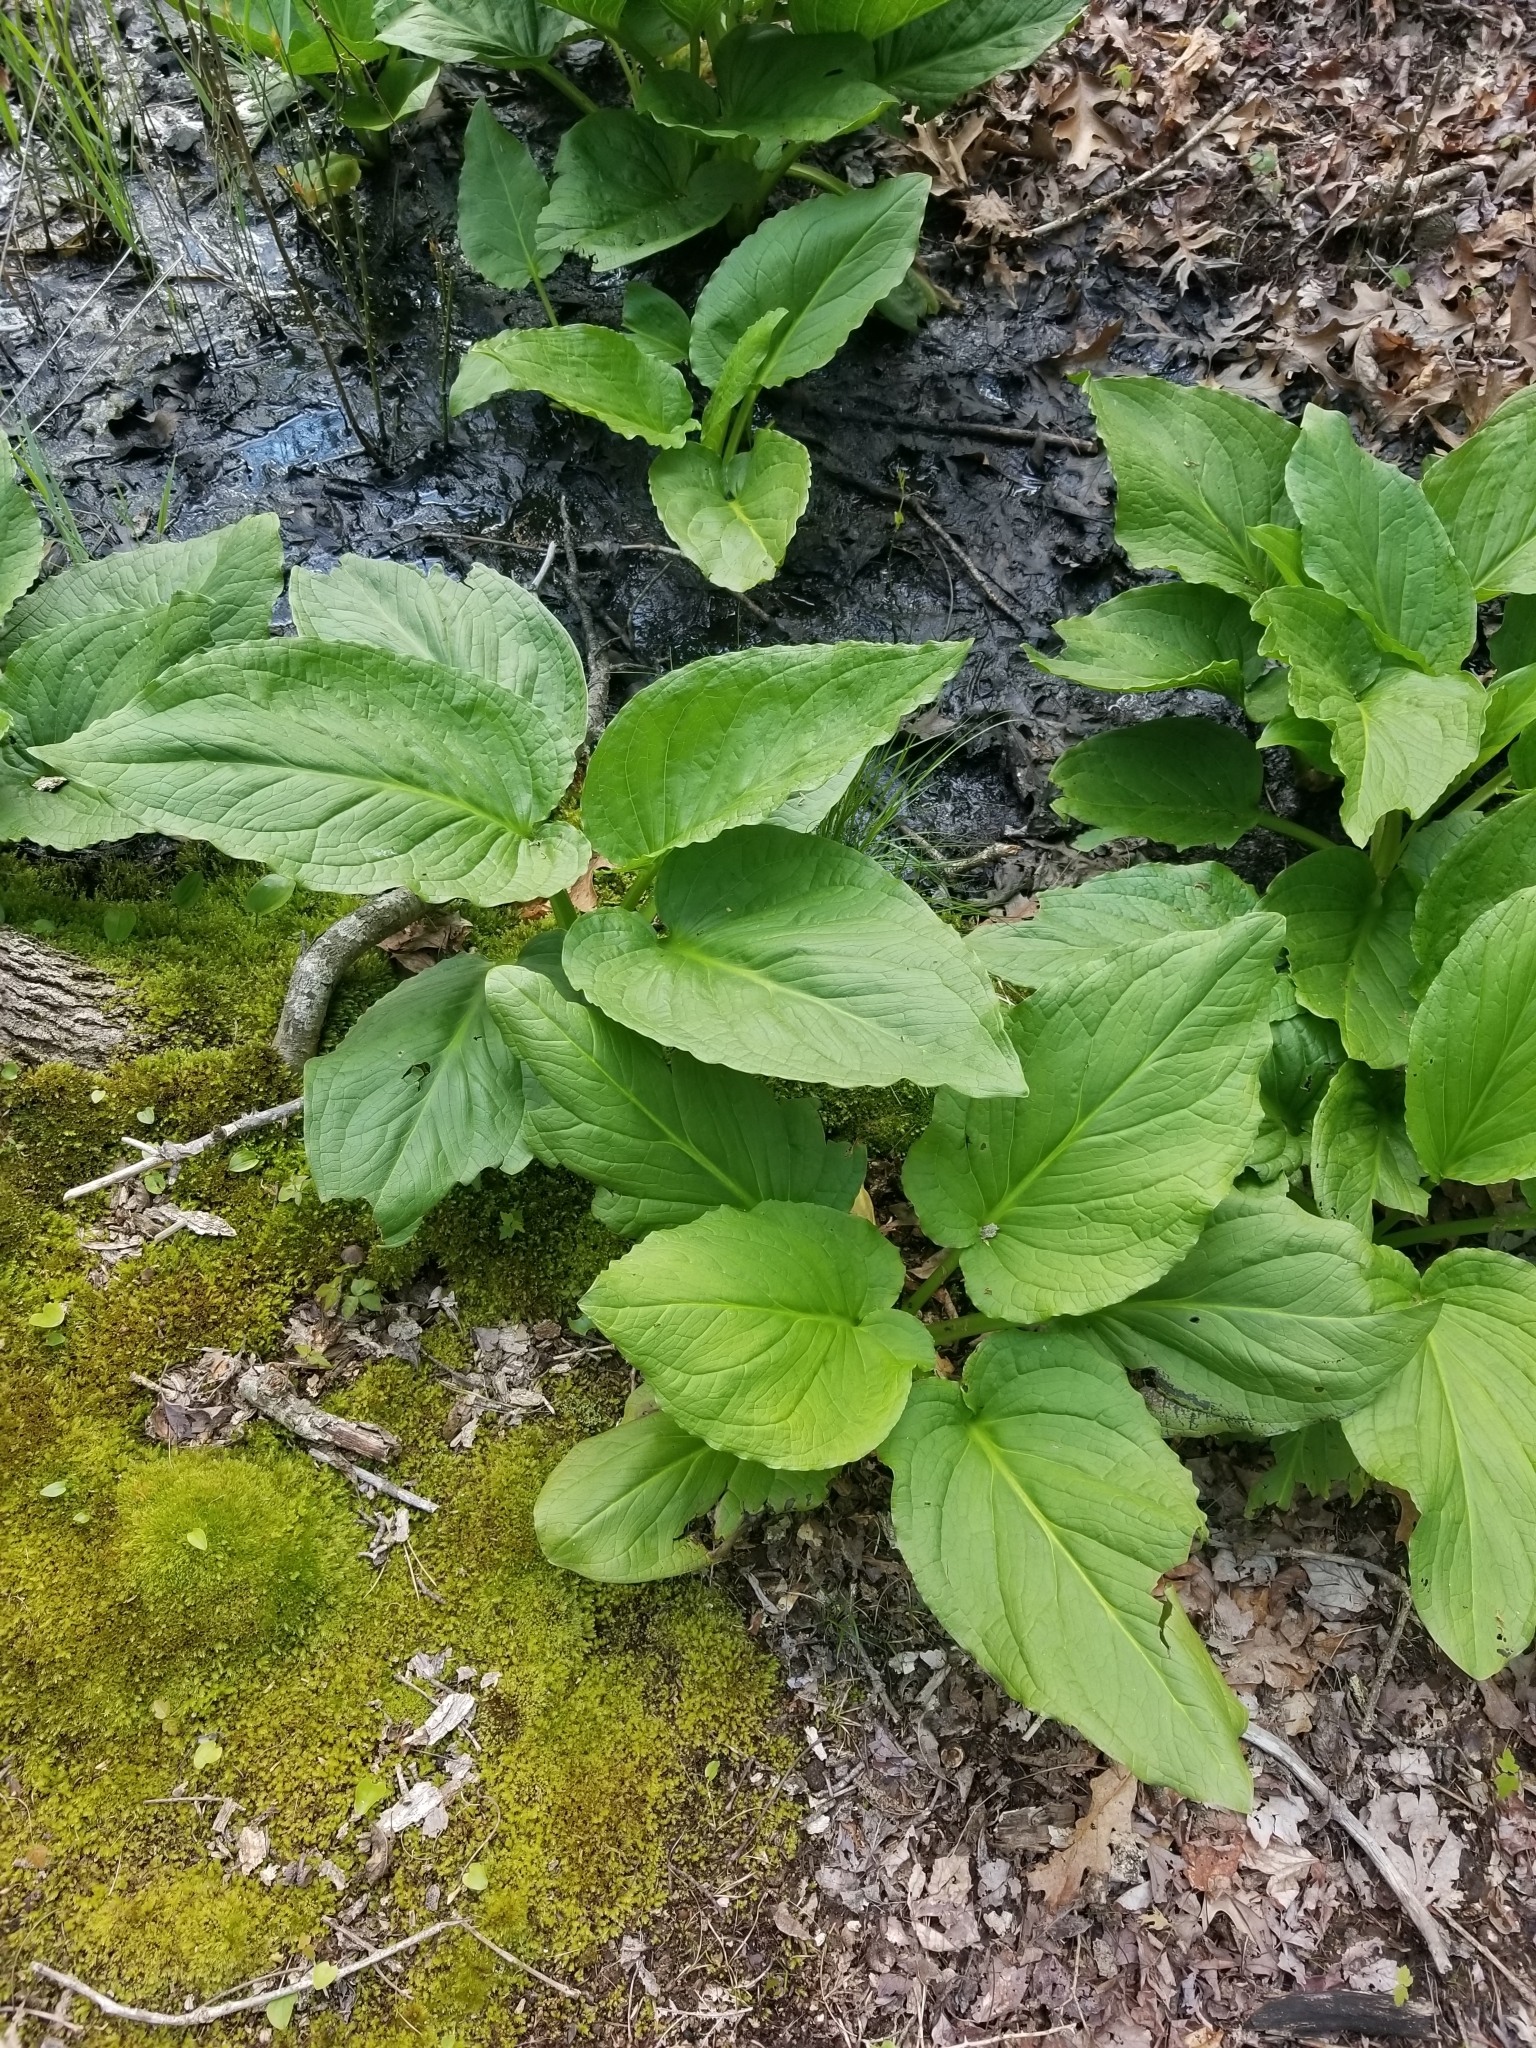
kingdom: Plantae
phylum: Tracheophyta
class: Liliopsida
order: Alismatales
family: Araceae
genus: Symplocarpus
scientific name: Symplocarpus foetidus
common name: Eastern skunk cabbage
